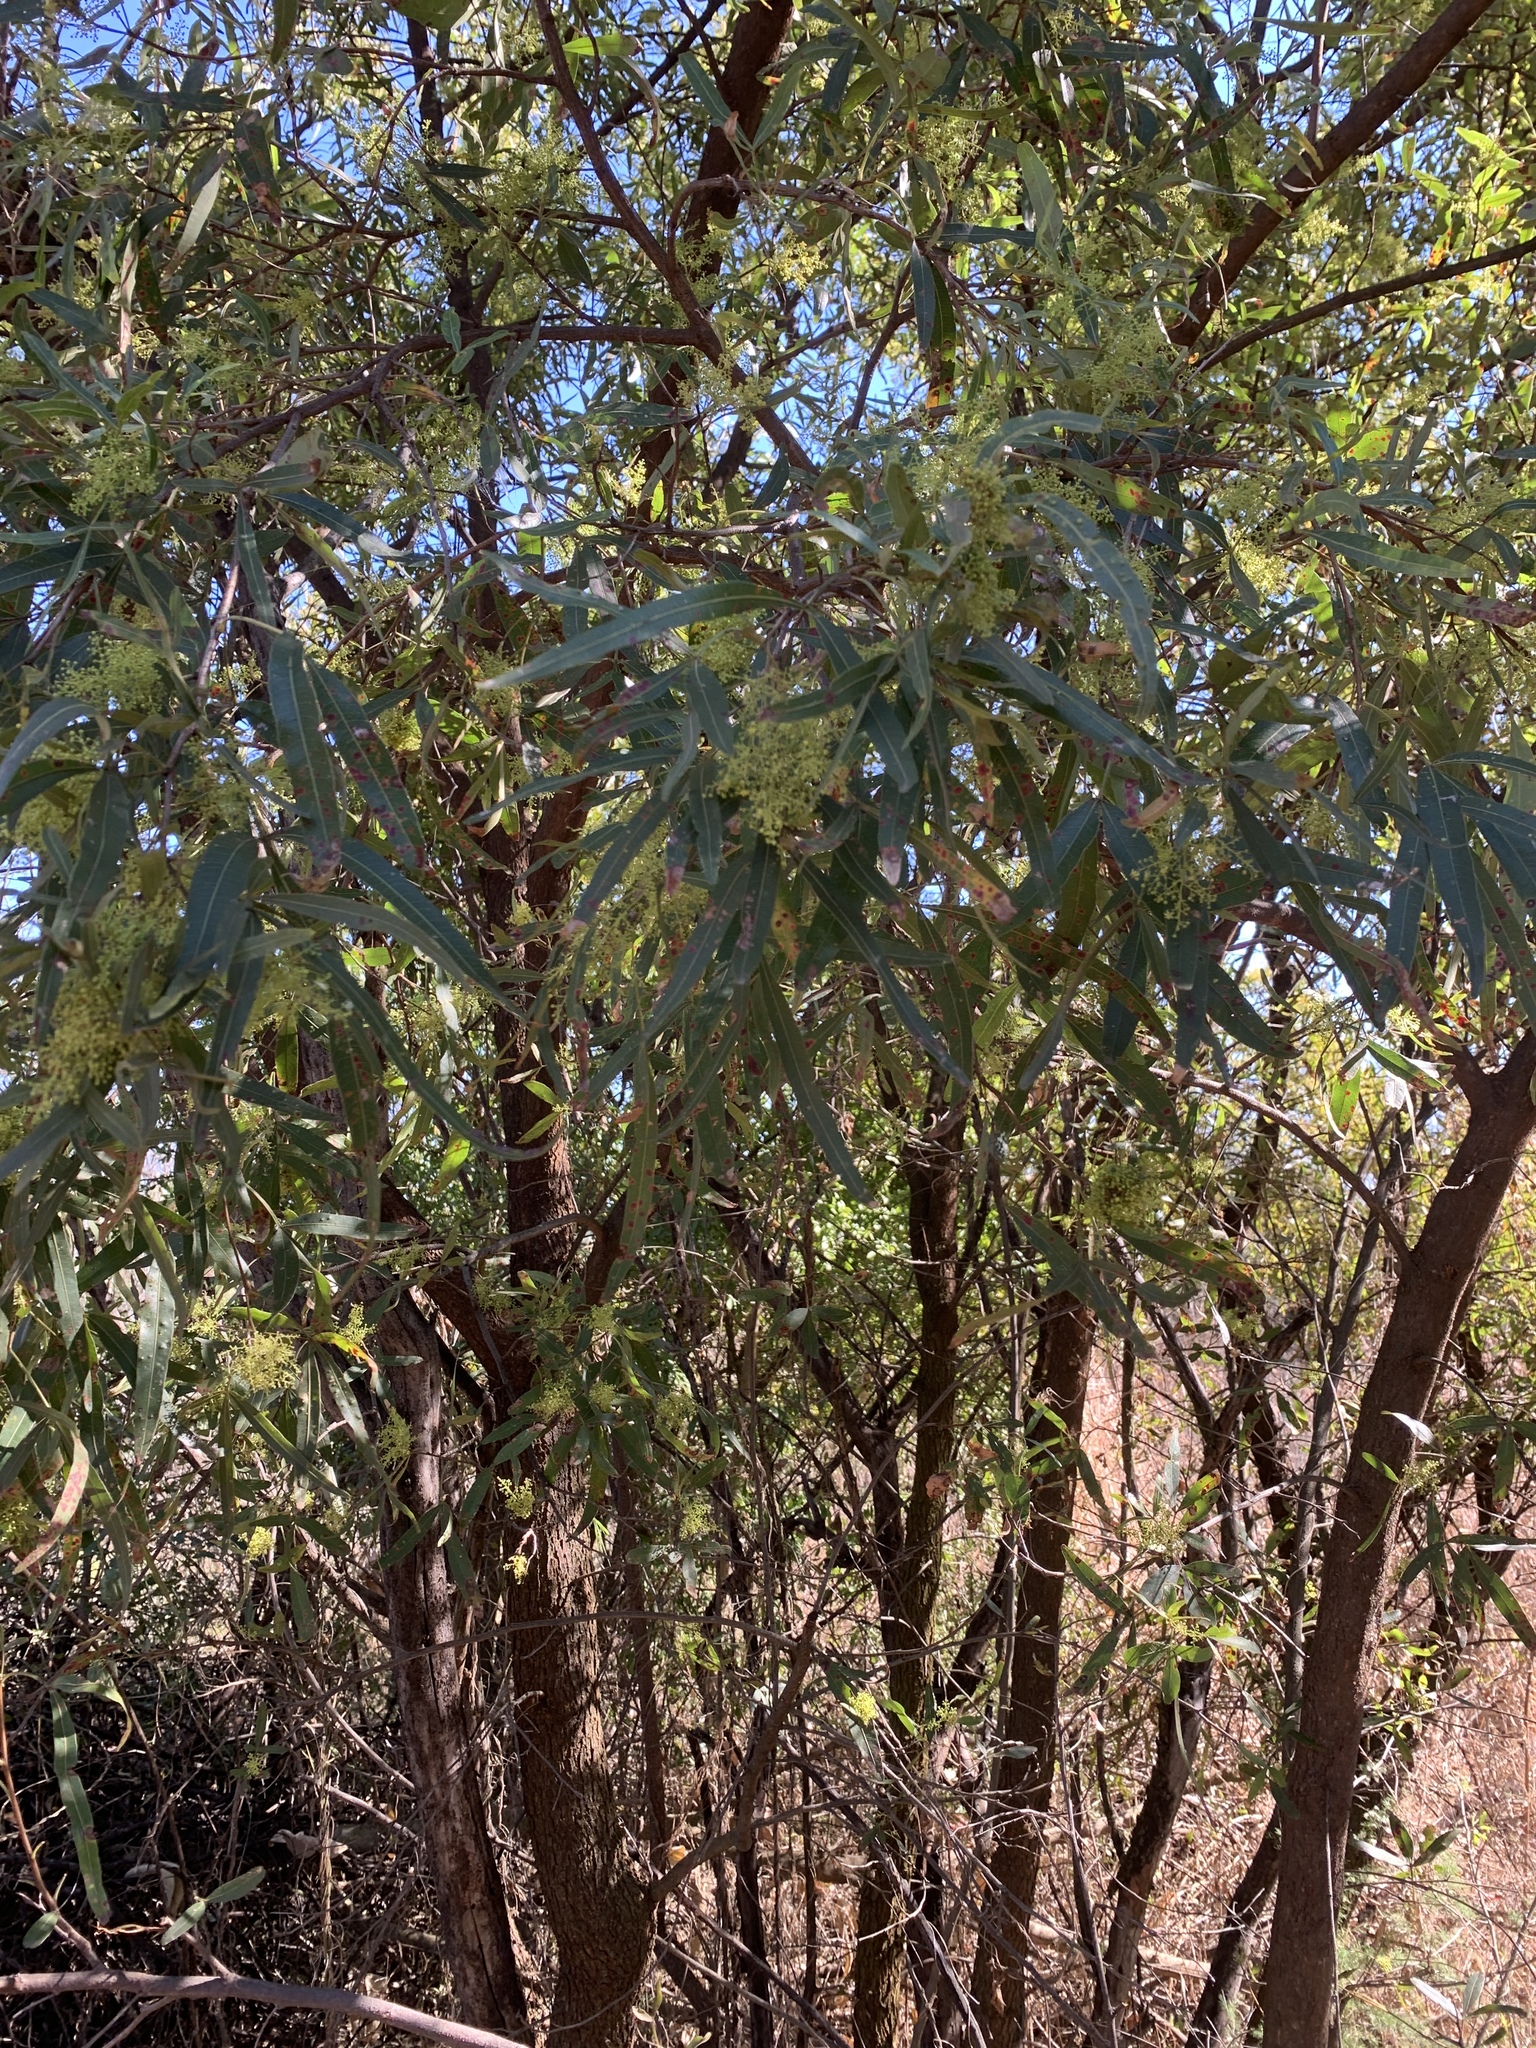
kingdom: Plantae
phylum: Tracheophyta
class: Magnoliopsida
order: Sapindales
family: Anacardiaceae
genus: Searsia
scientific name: Searsia lancea
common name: Cashew
